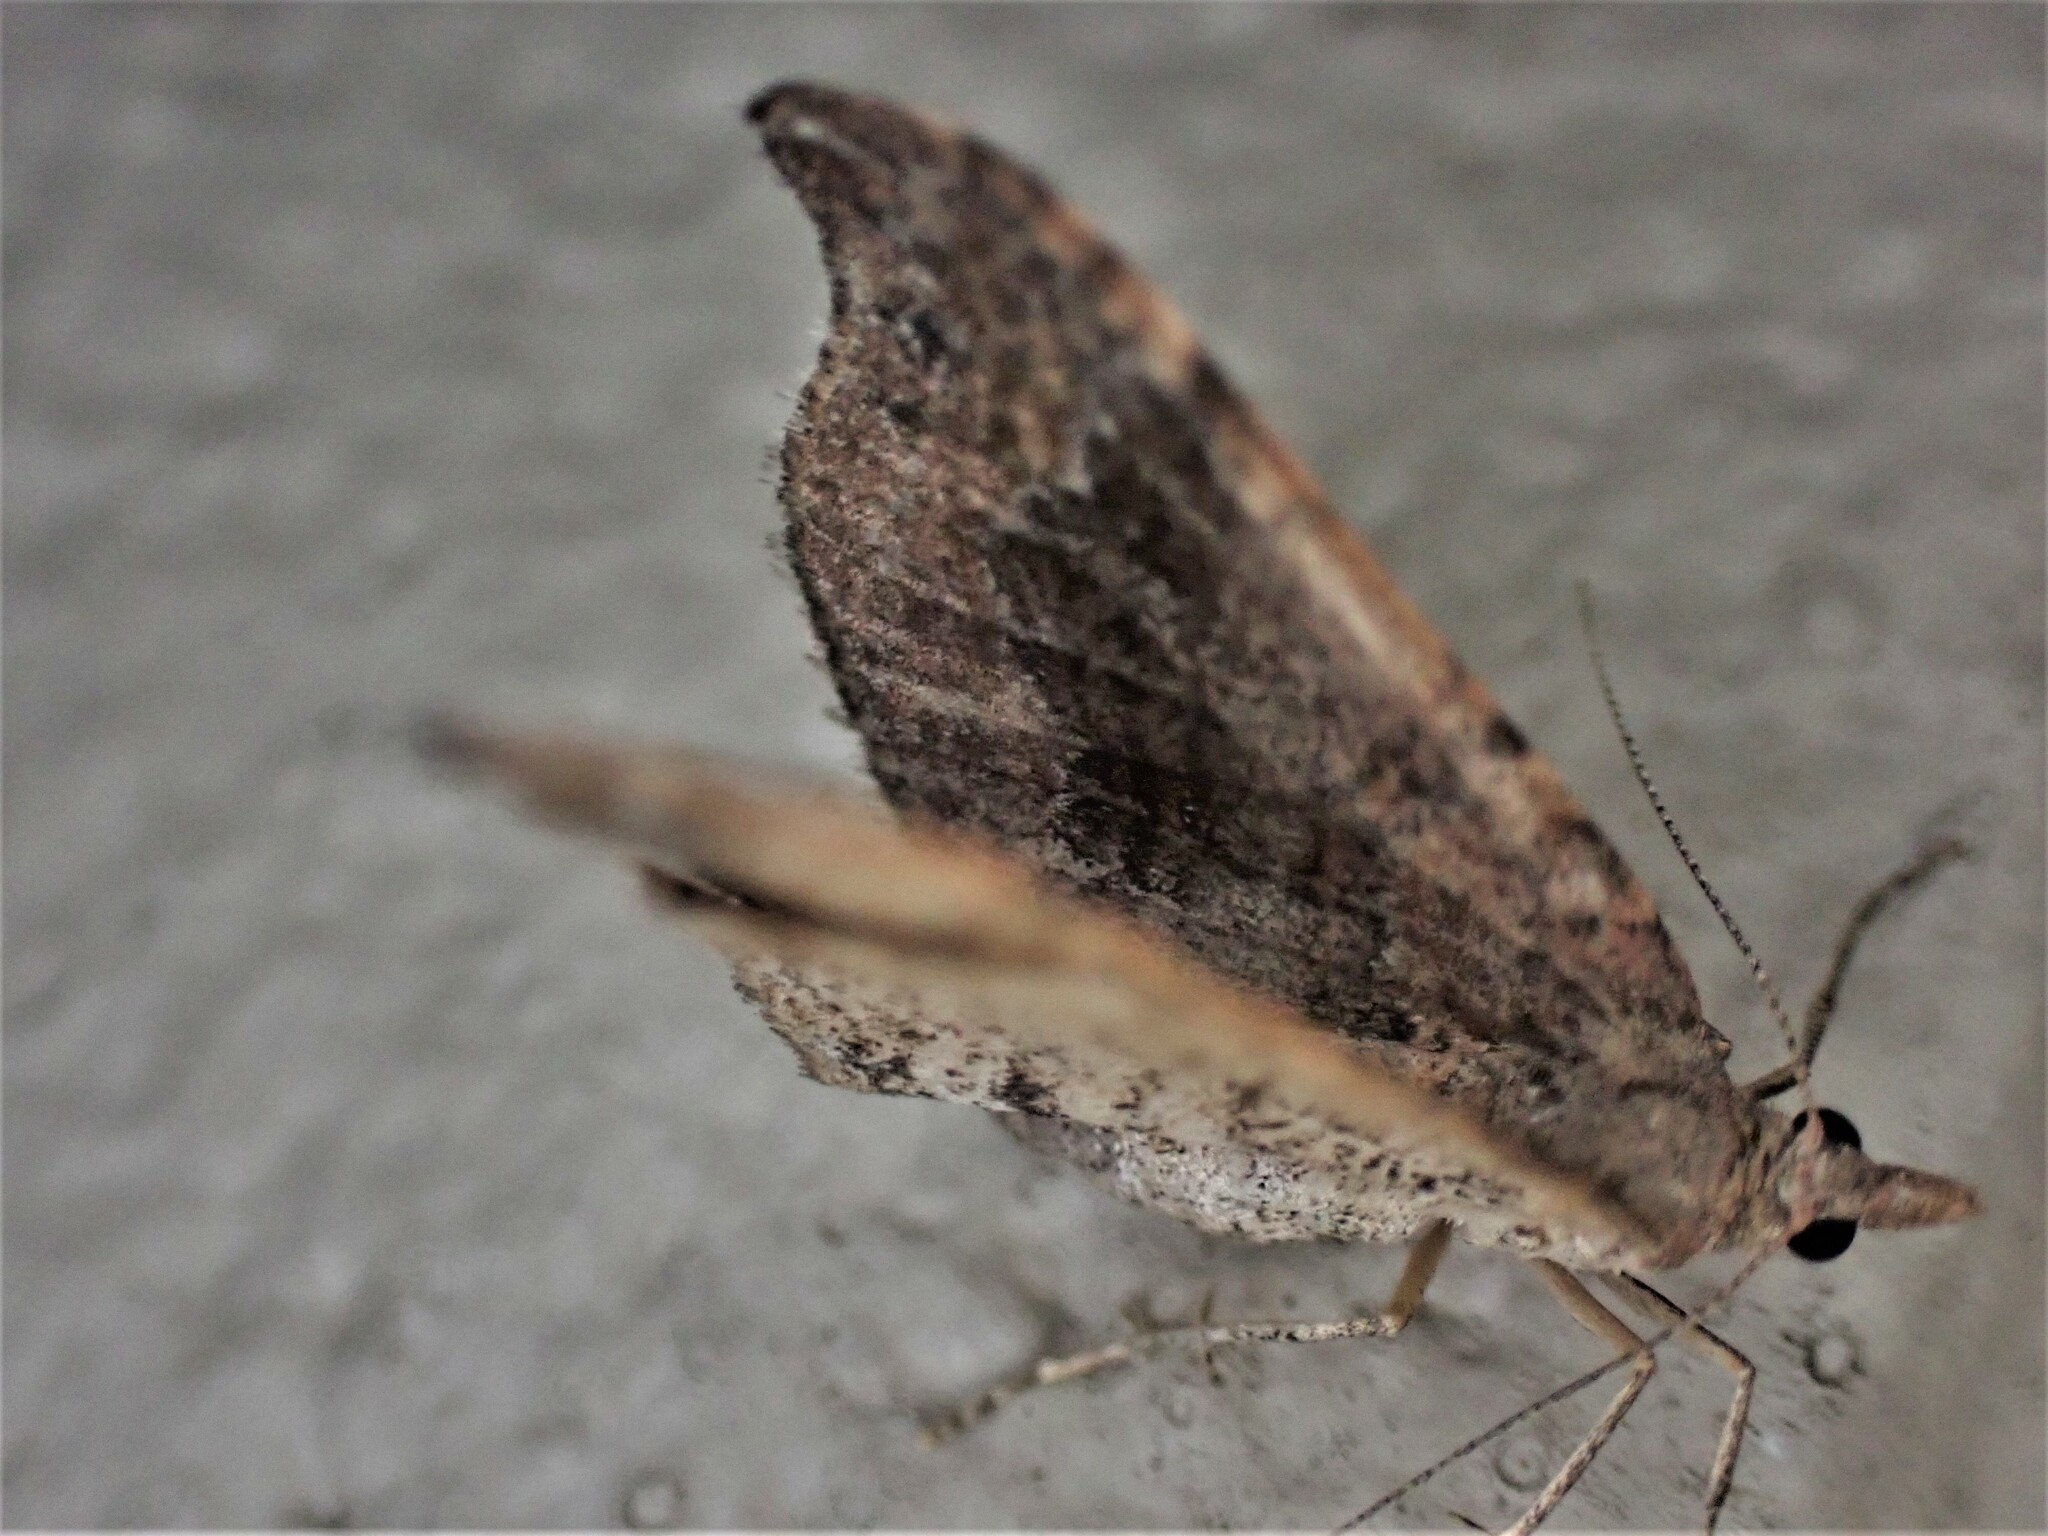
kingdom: Animalia
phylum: Arthropoda
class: Insecta
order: Lepidoptera
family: Geometridae
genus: Homodotis
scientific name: Homodotis megaspilata
